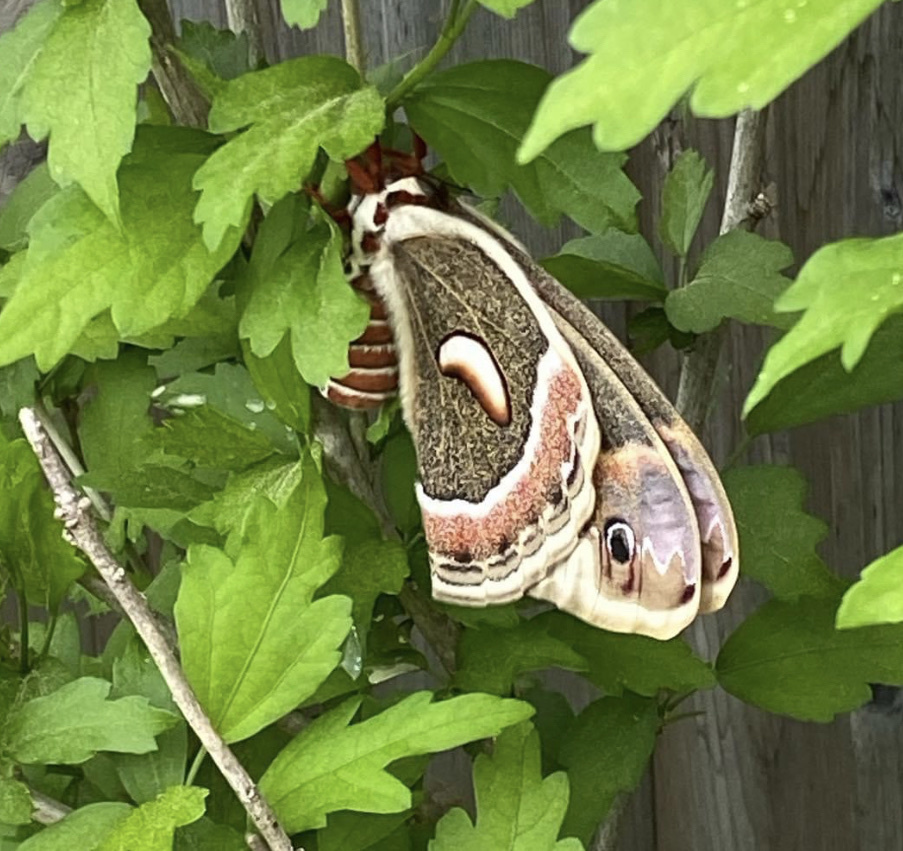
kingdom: Animalia
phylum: Arthropoda
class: Insecta
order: Lepidoptera
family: Saturniidae
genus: Hyalophora
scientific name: Hyalophora cecropia
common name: Cecropia silkmoth
